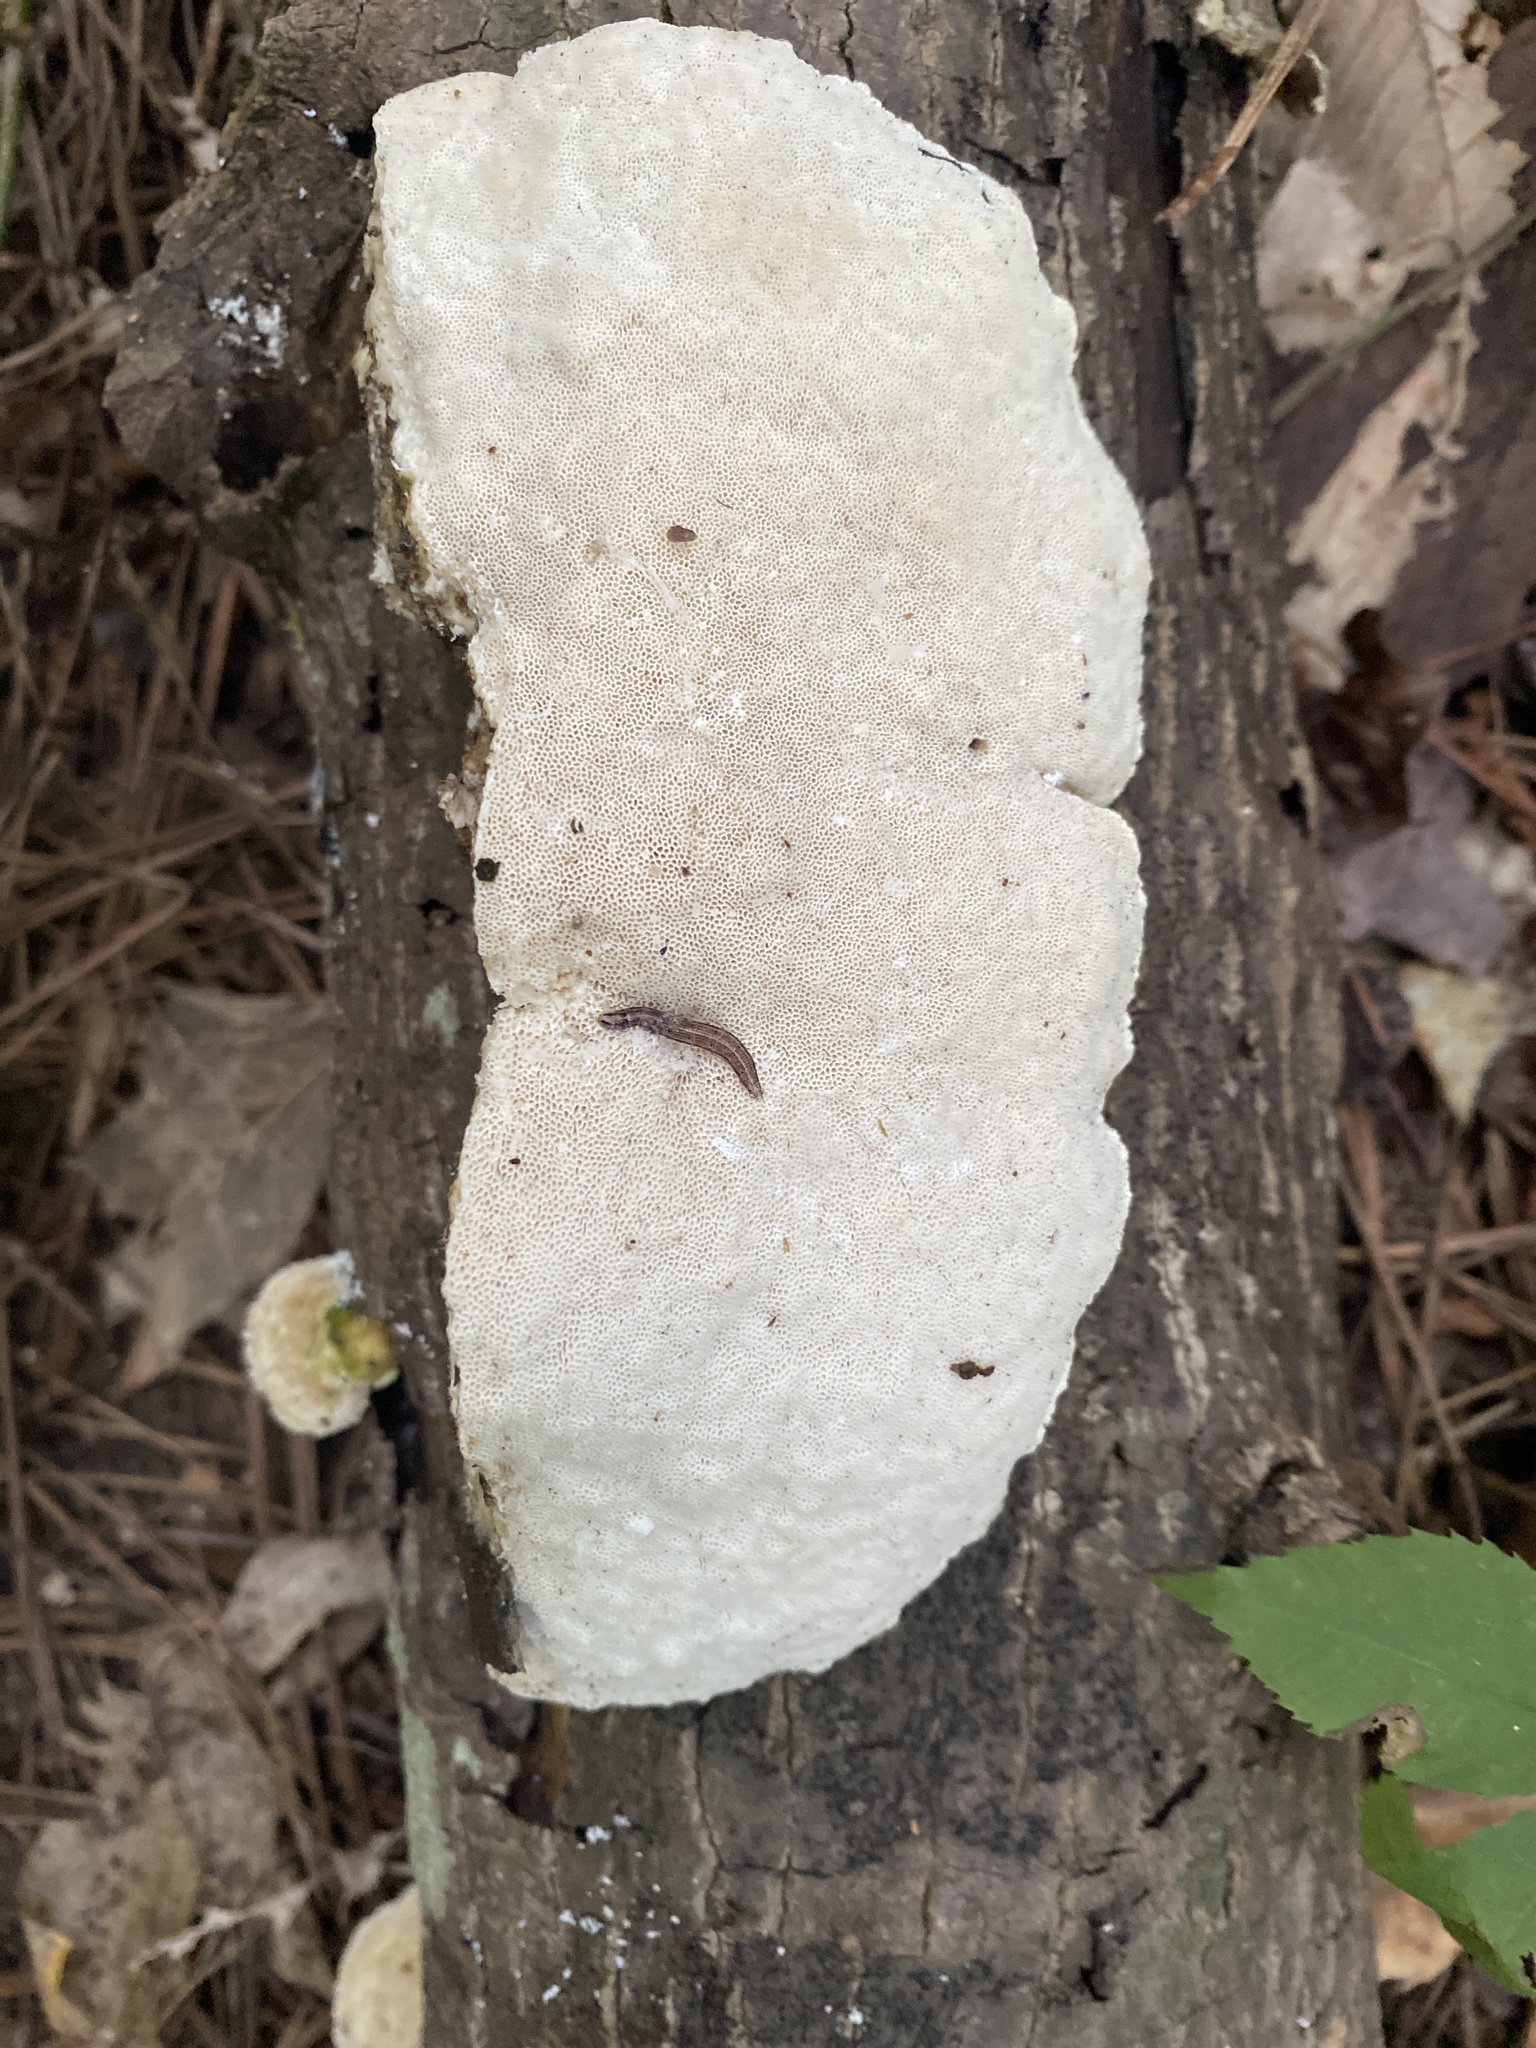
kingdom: Fungi
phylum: Basidiomycota
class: Agaricomycetes
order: Polyporales
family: Polyporaceae
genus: Trametes
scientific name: Trametes lactinea
